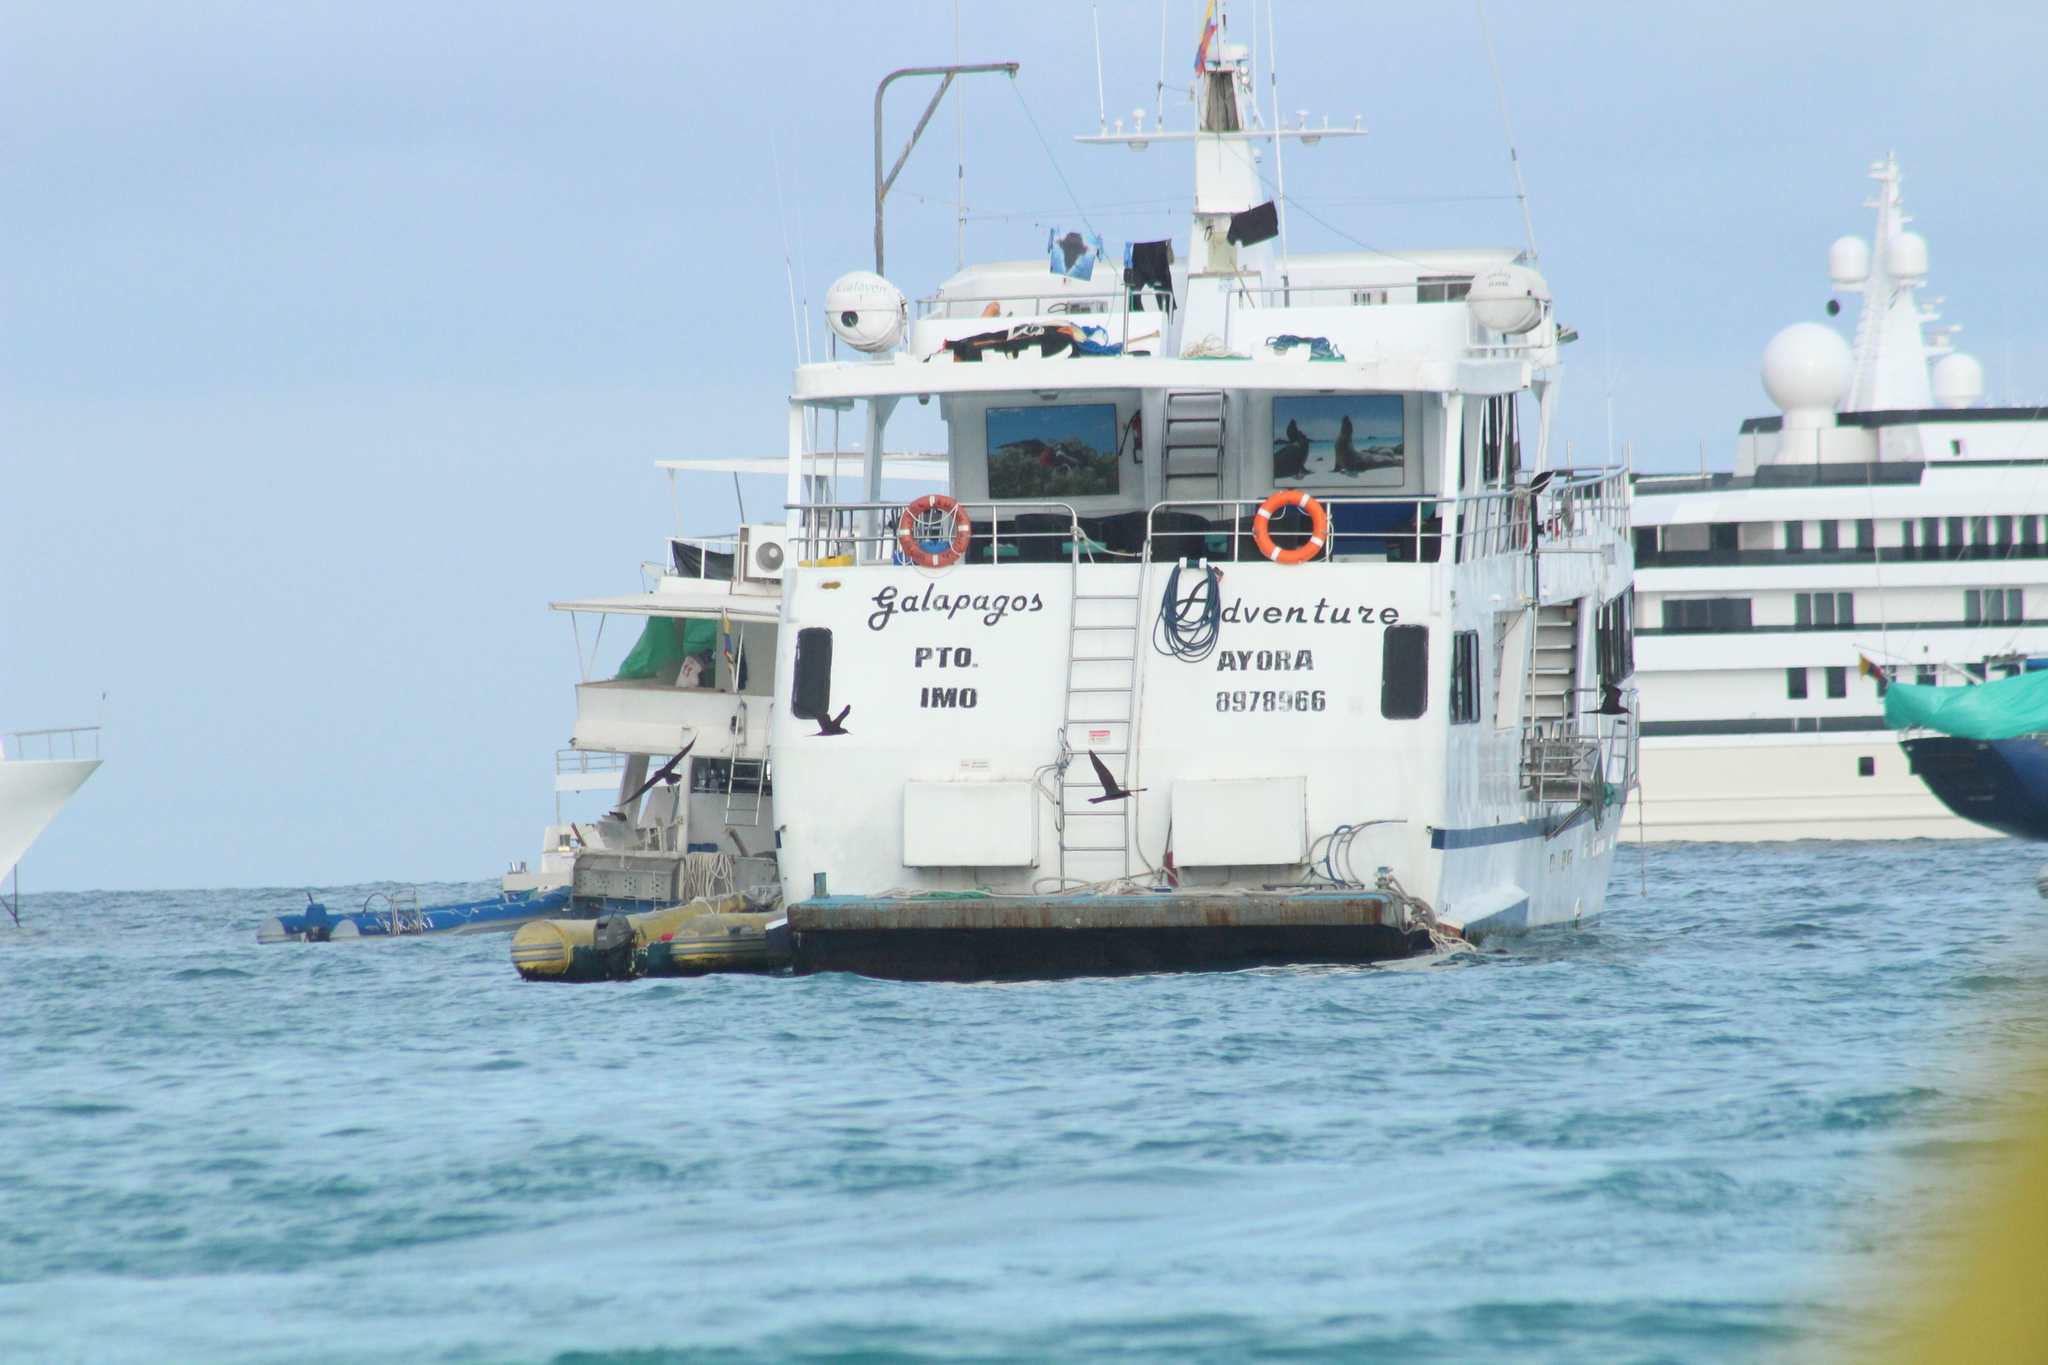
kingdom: Animalia
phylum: Chordata
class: Aves
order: Charadriiformes
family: Laridae
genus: Anous
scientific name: Anous stolidus
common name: Brown noddy
